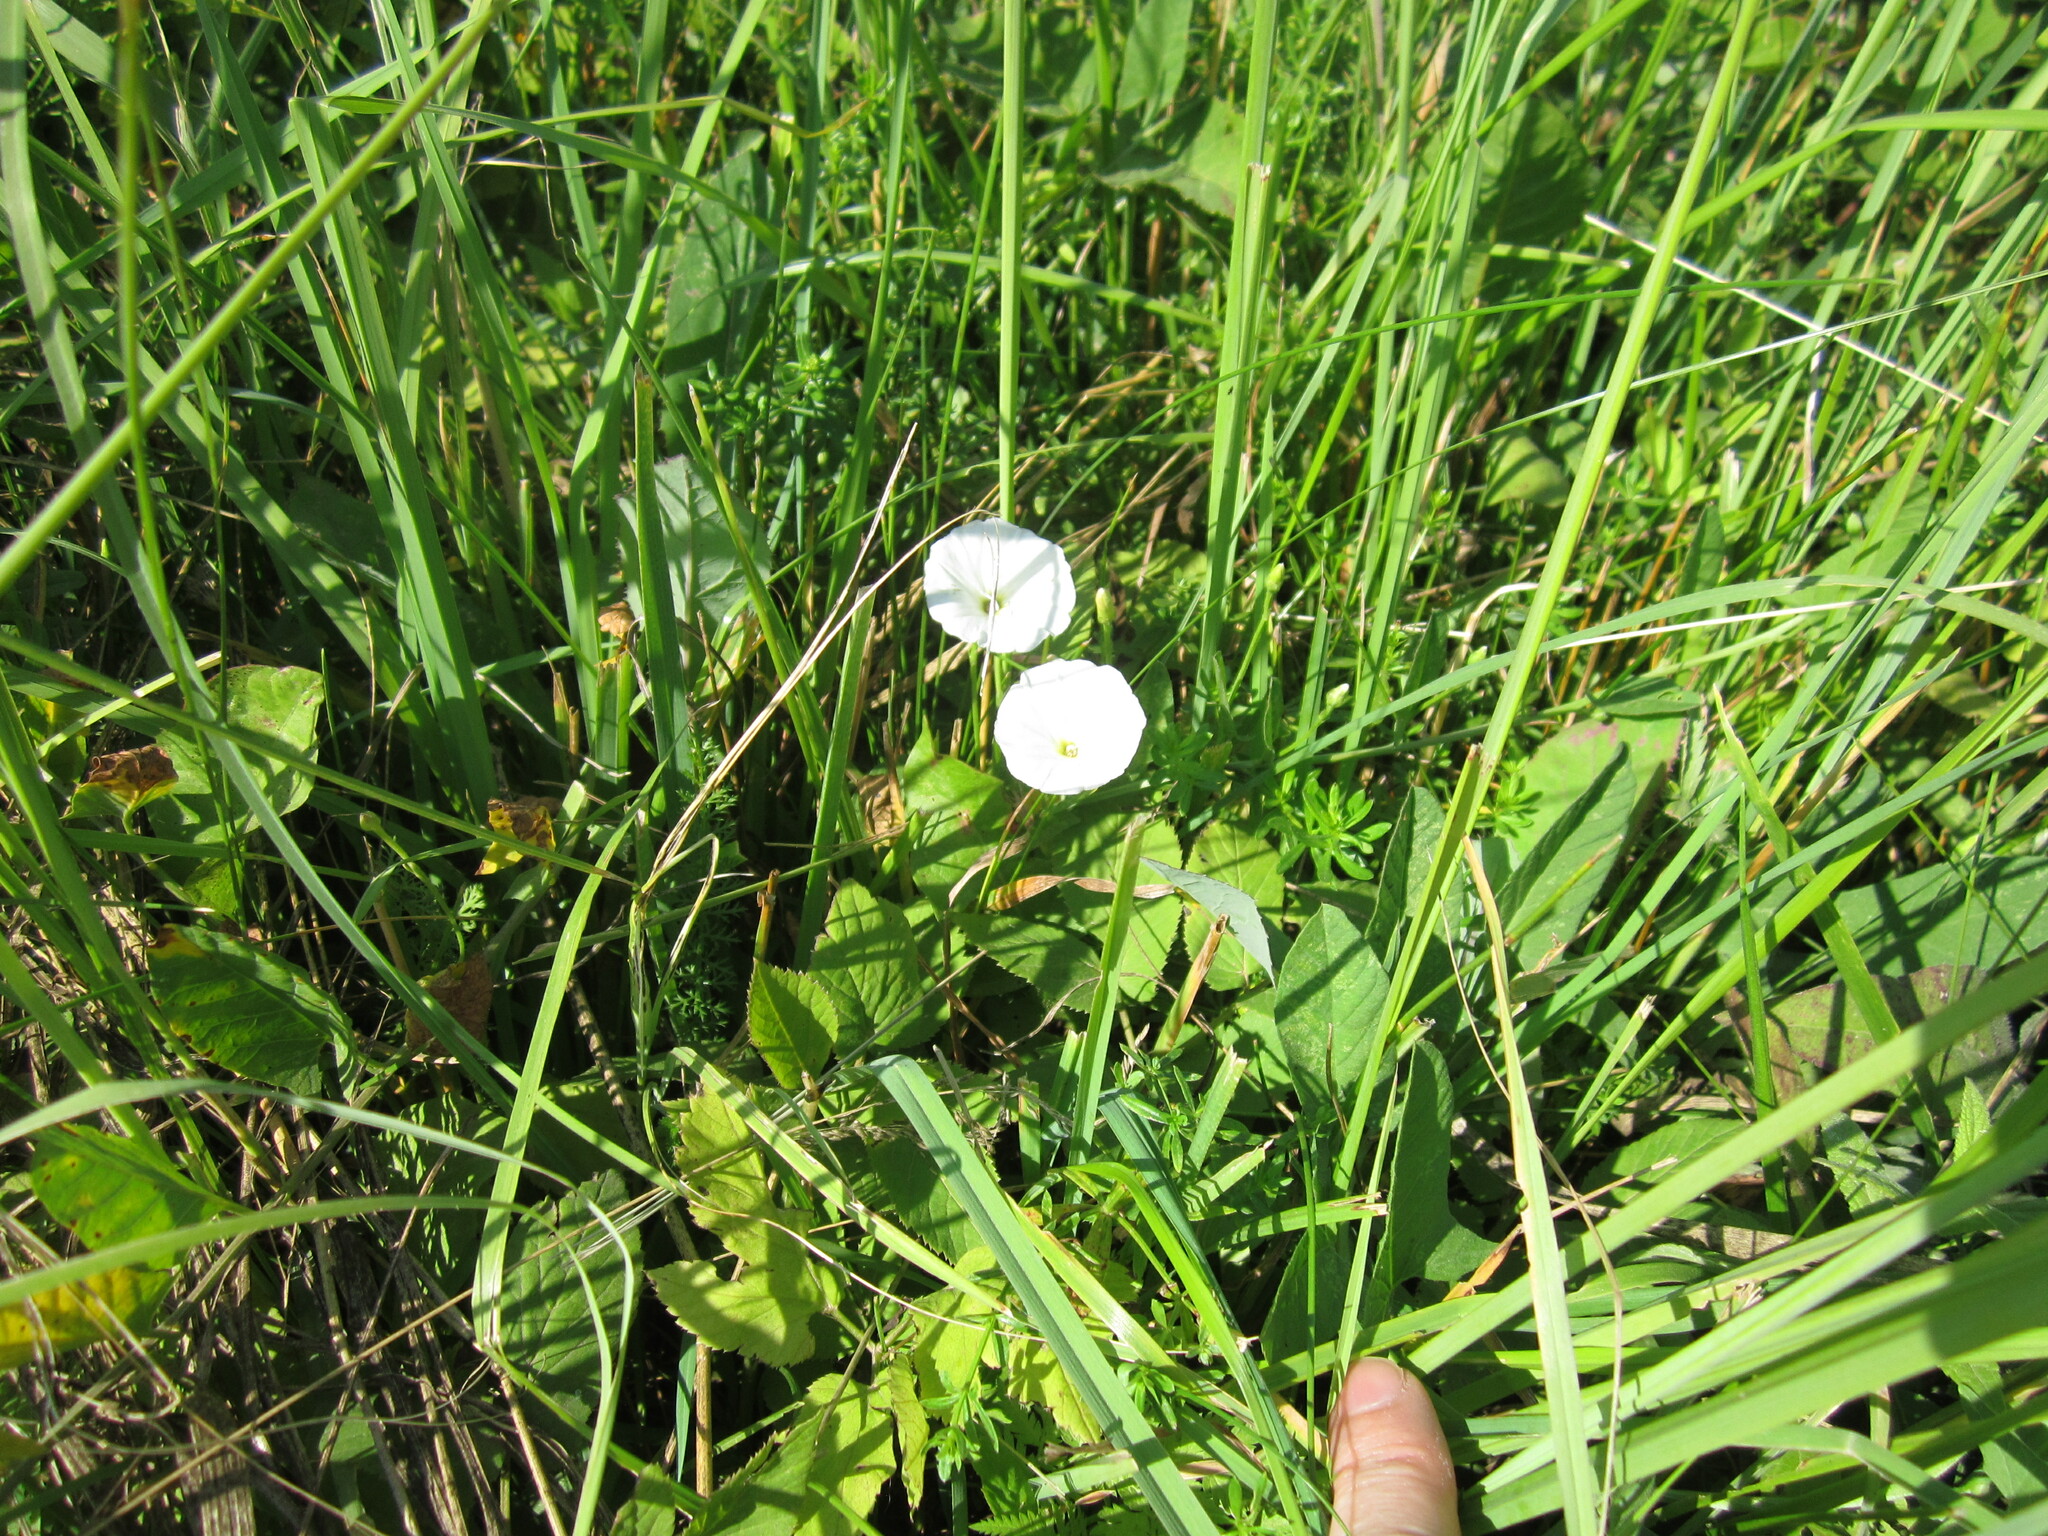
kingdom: Plantae
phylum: Tracheophyta
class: Magnoliopsida
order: Solanales
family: Convolvulaceae
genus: Convolvulus
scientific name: Convolvulus arvensis
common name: Field bindweed
